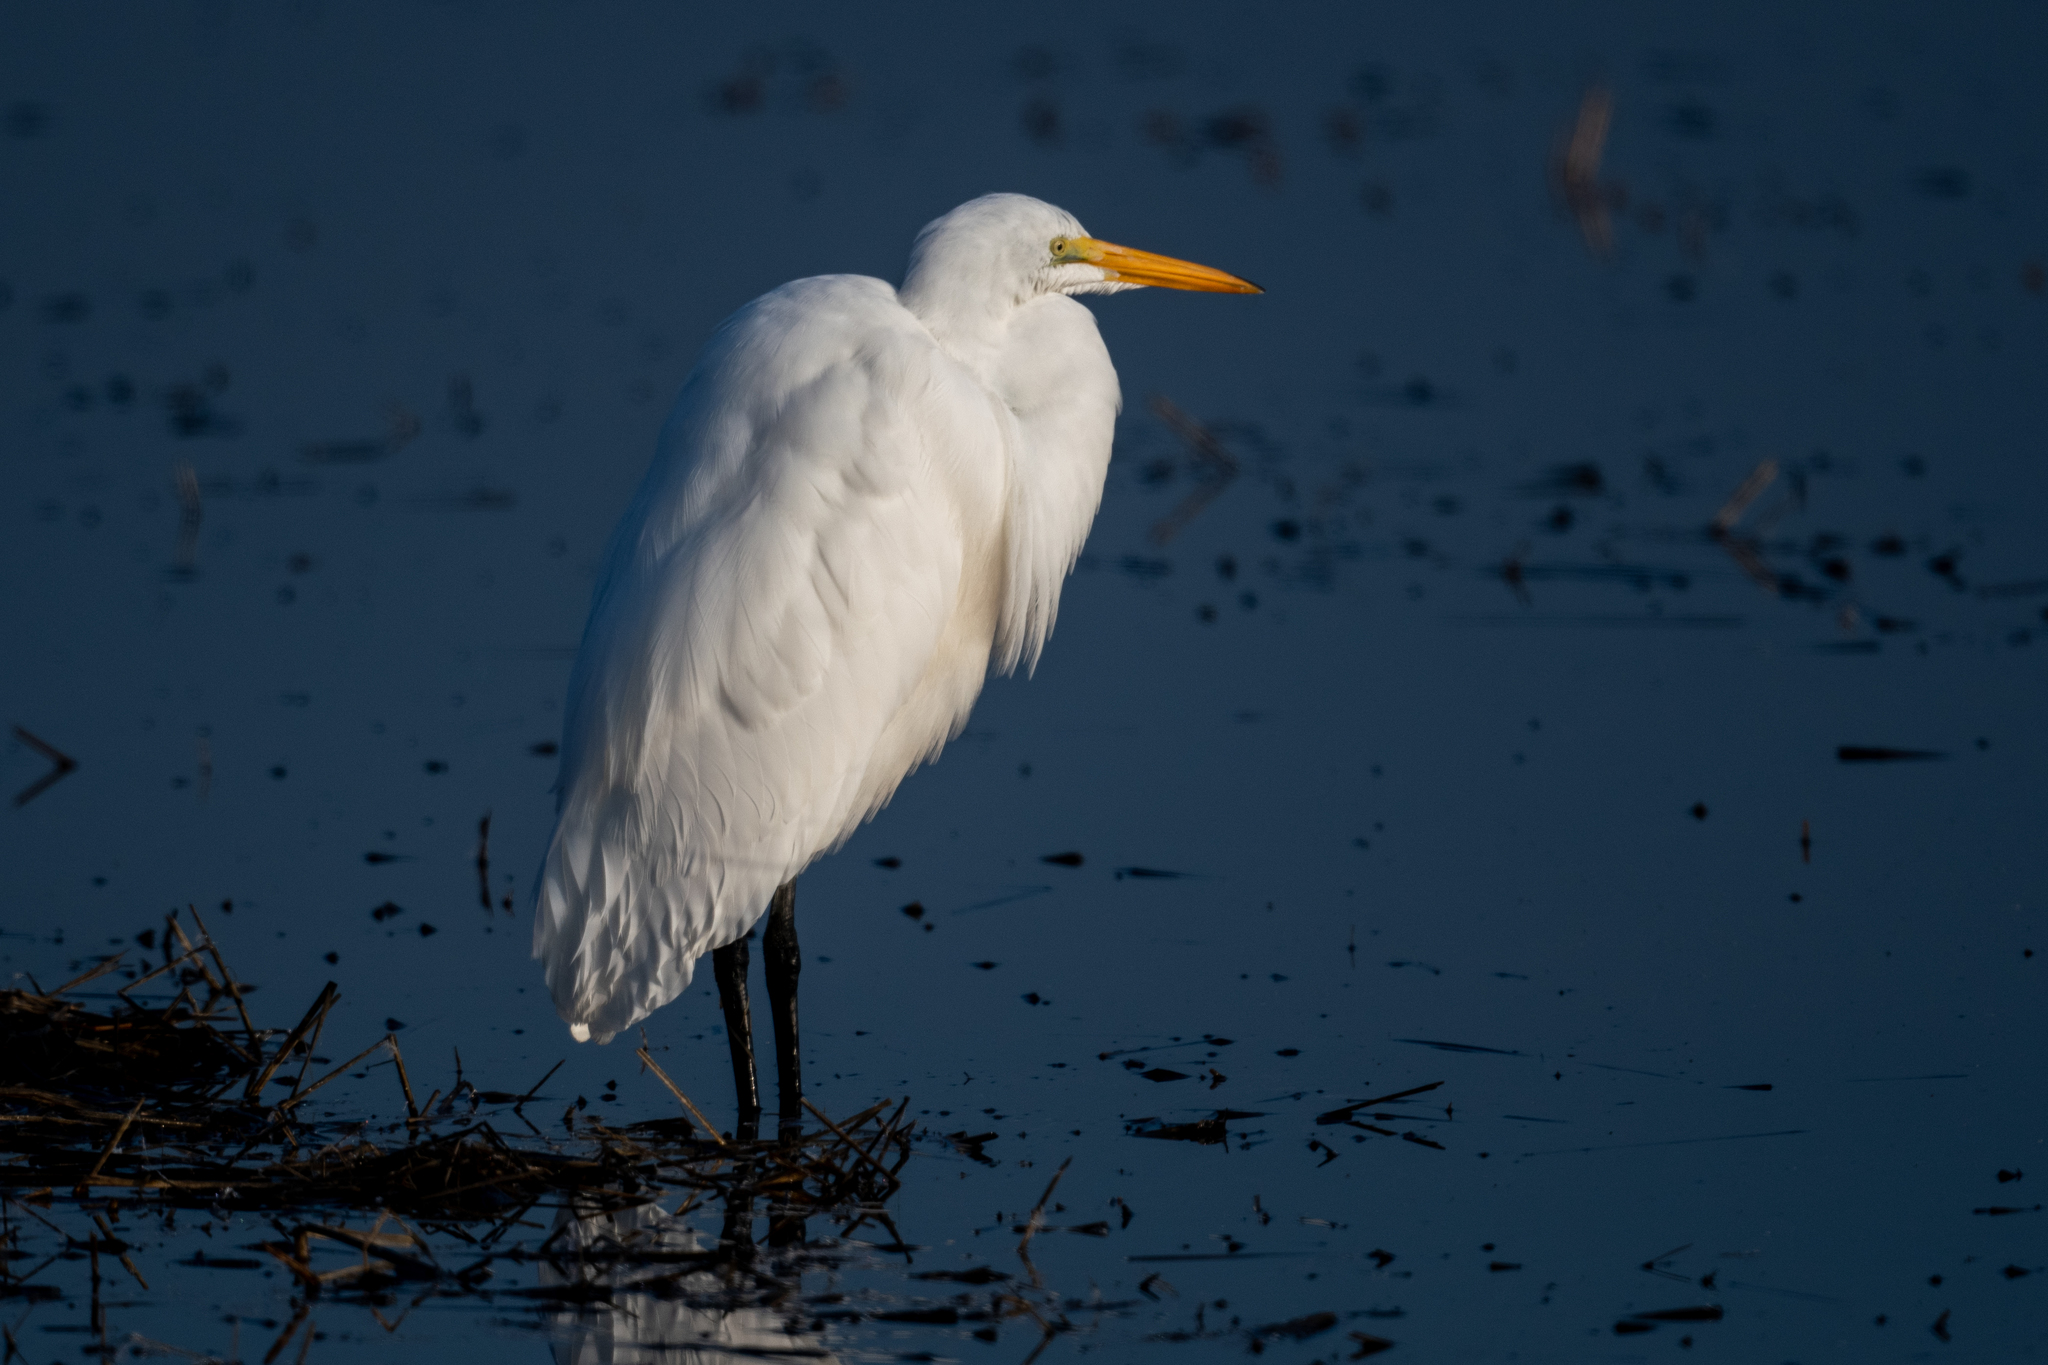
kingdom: Animalia
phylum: Chordata
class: Aves
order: Pelecaniformes
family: Ardeidae
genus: Ardea
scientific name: Ardea alba
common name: Great egret
